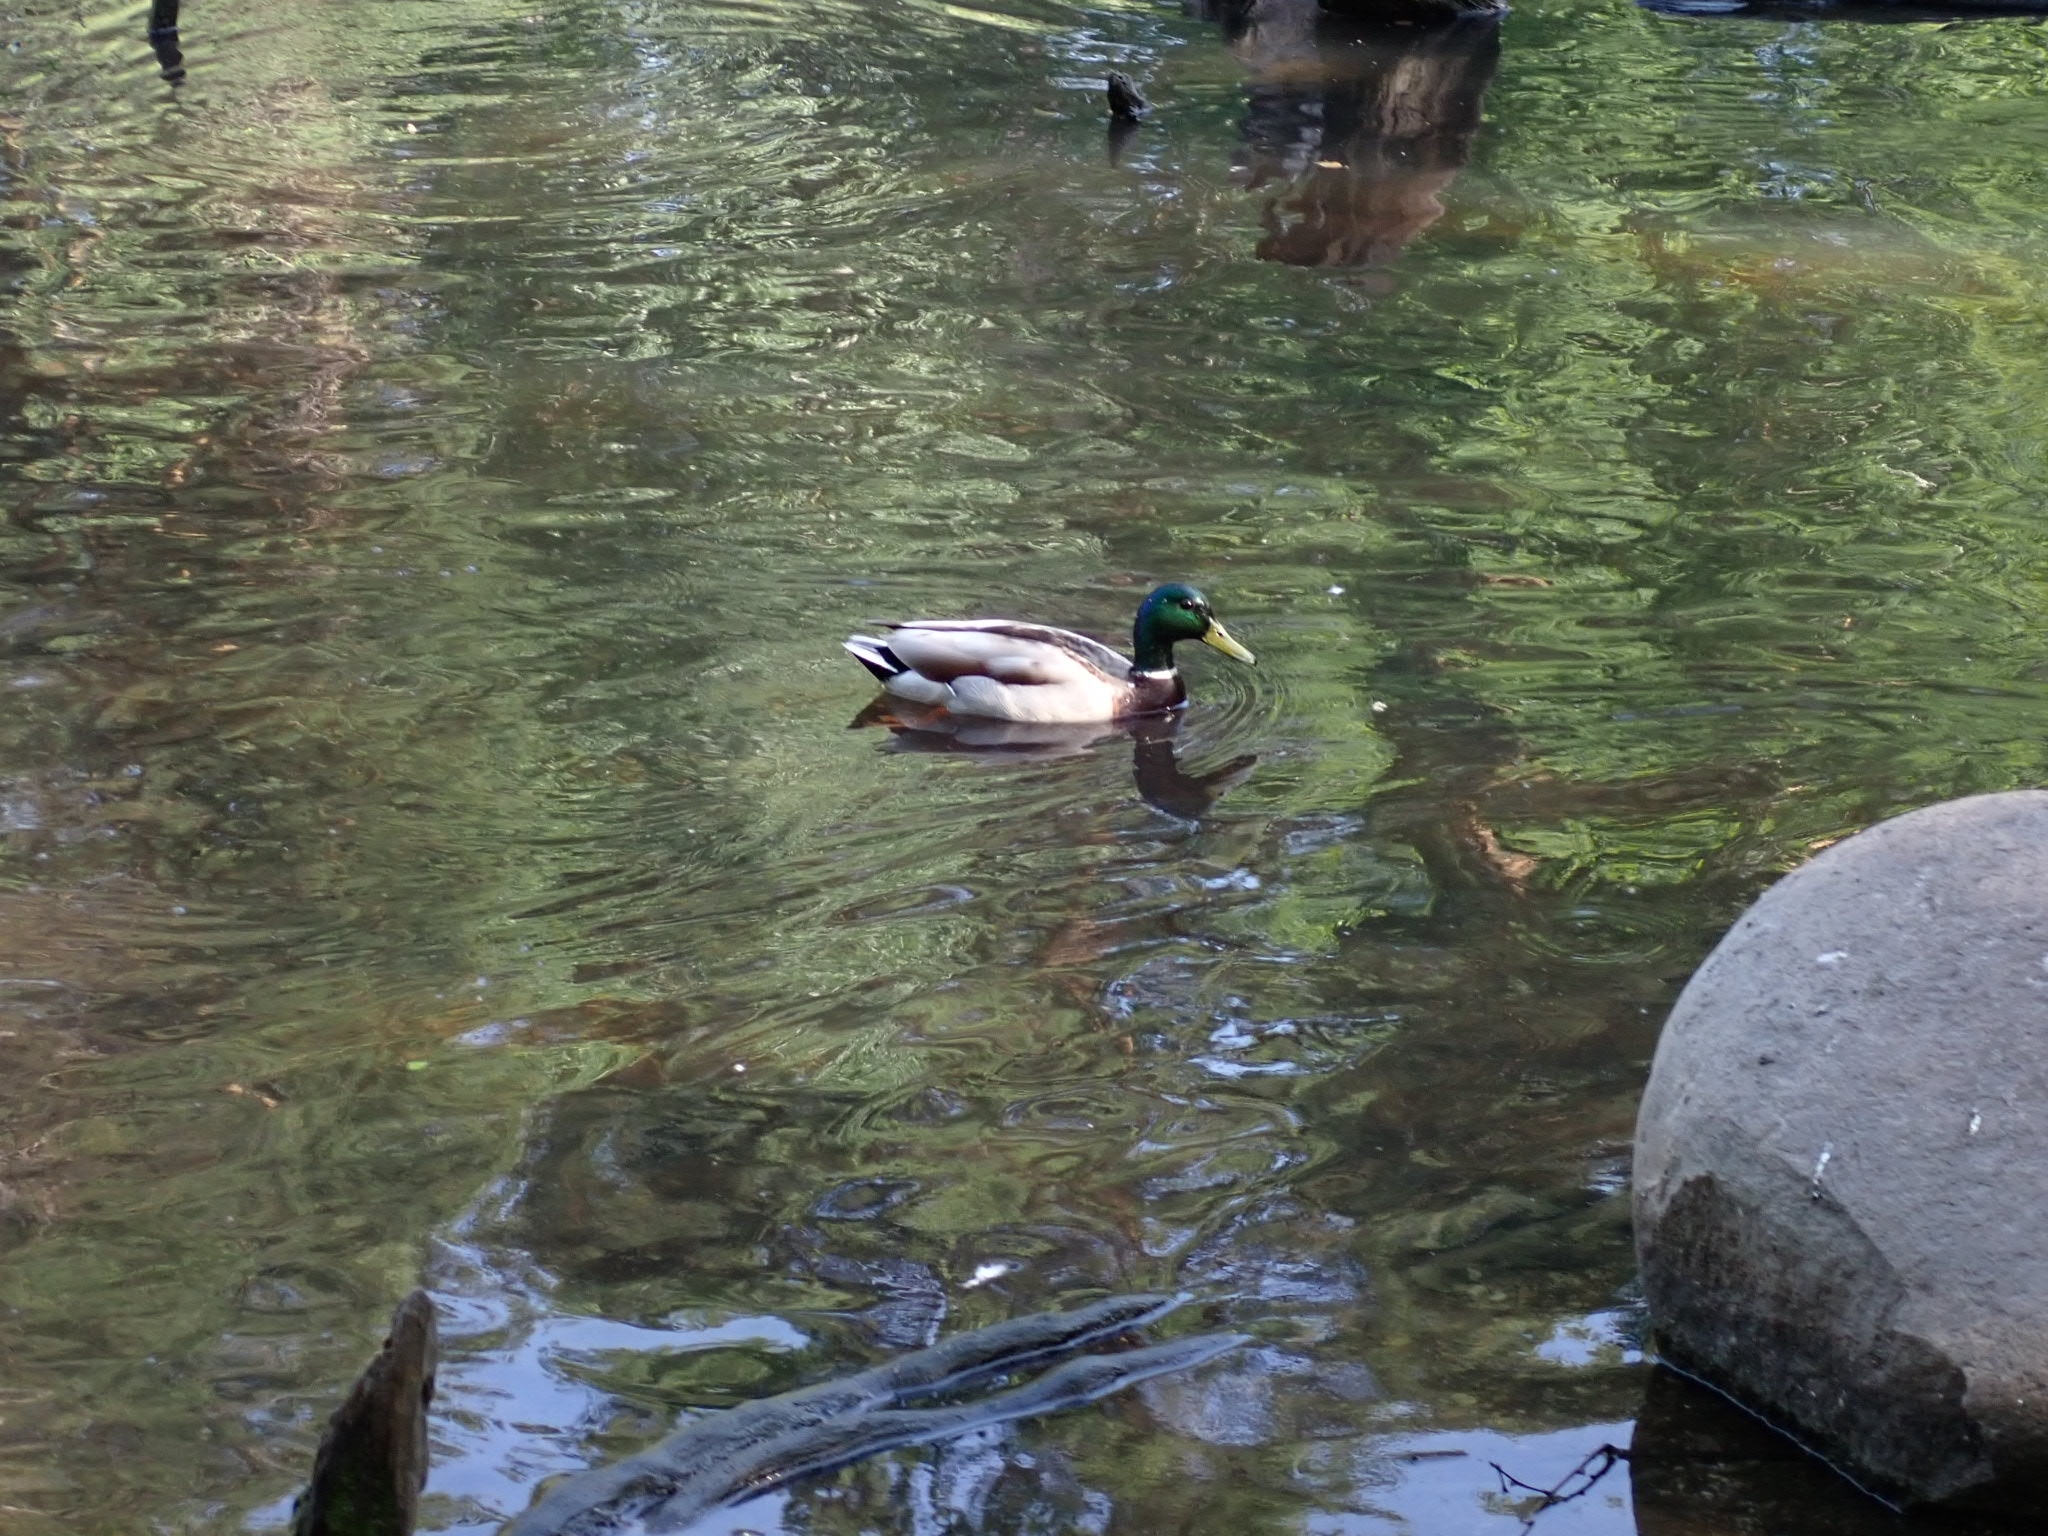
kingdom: Animalia
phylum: Chordata
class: Aves
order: Anseriformes
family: Anatidae
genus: Anas
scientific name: Anas platyrhynchos
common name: Mallard
